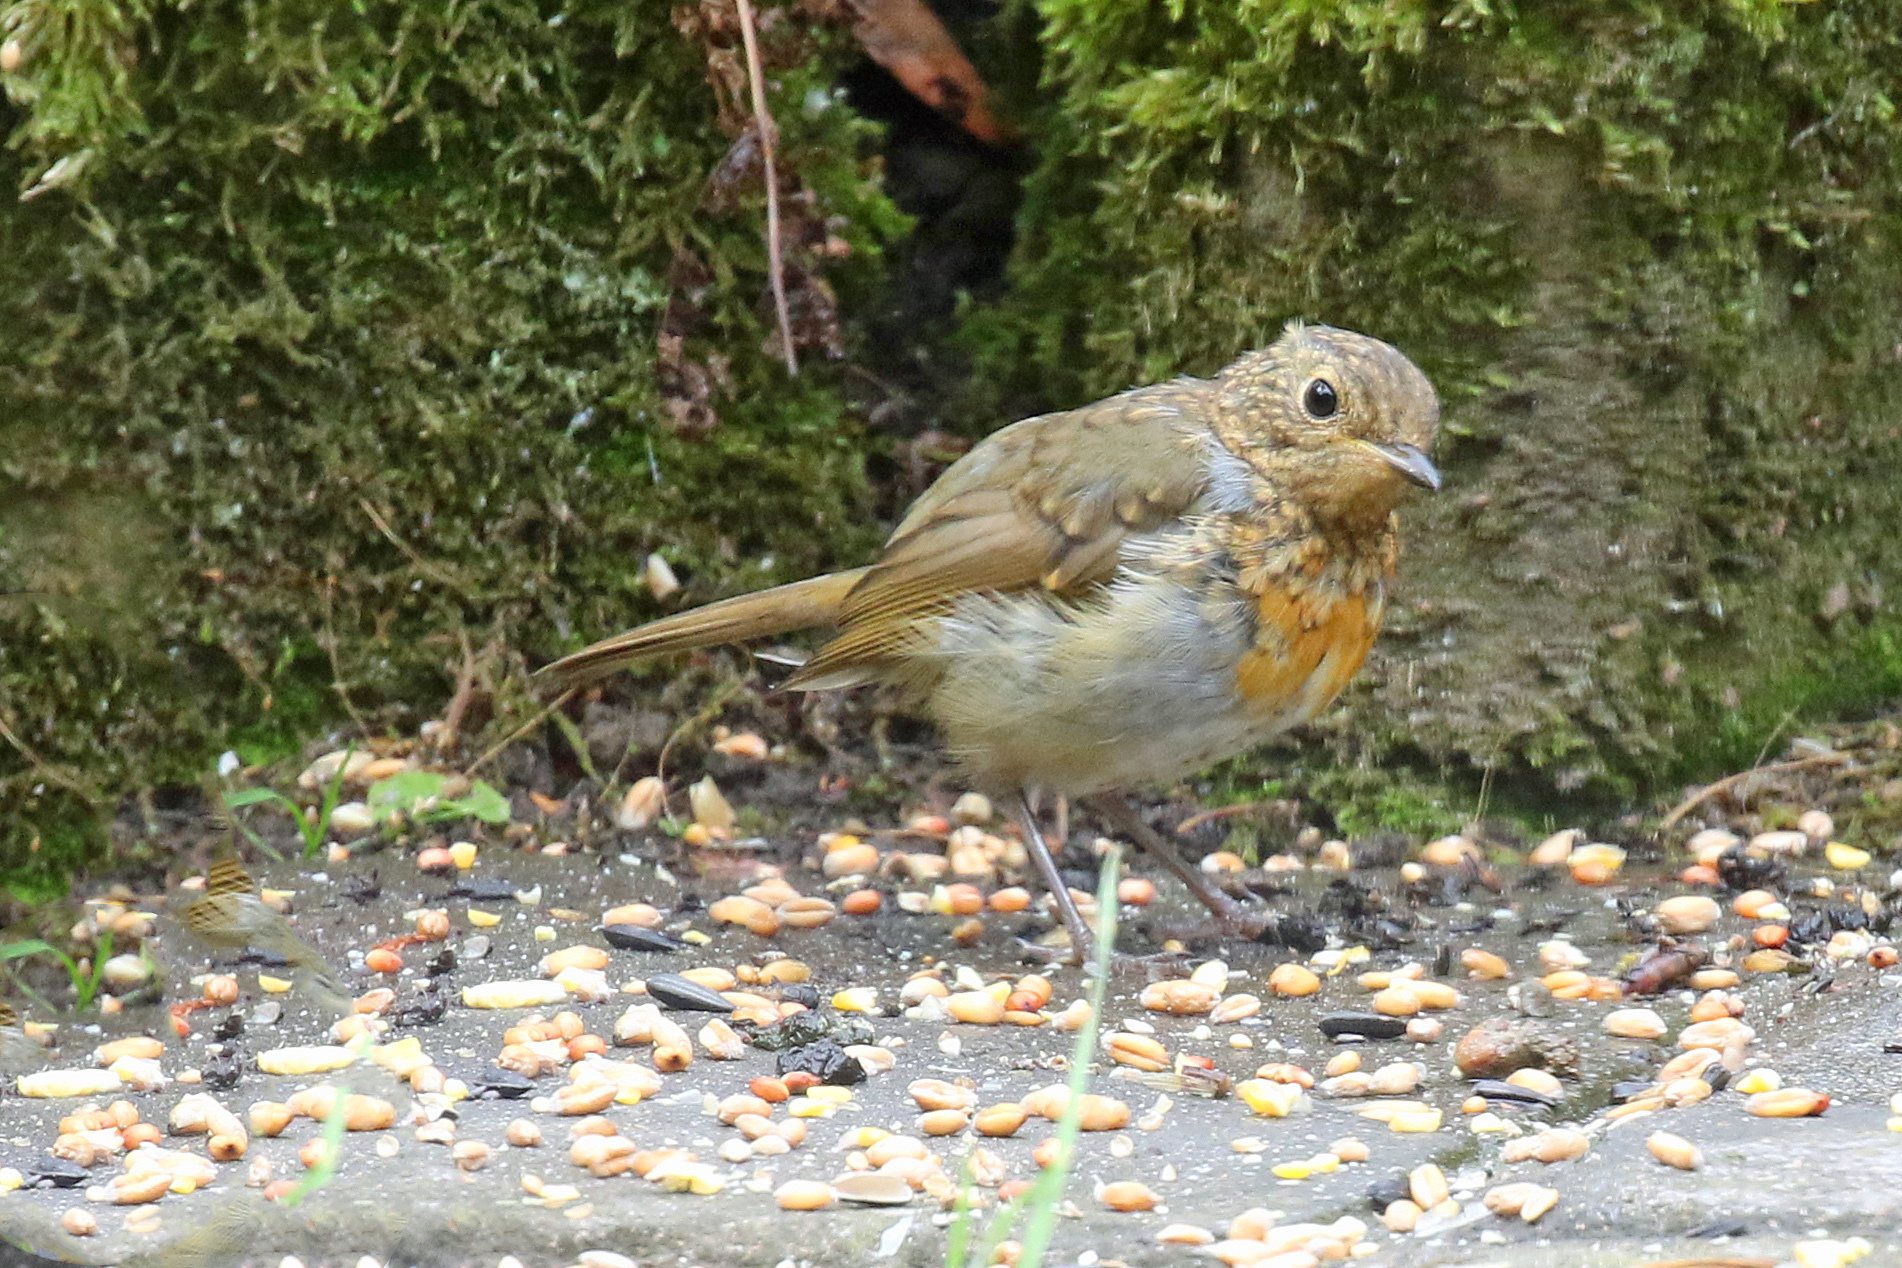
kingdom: Animalia
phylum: Chordata
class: Aves
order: Passeriformes
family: Muscicapidae
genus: Erithacus
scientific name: Erithacus rubecula
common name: European robin
